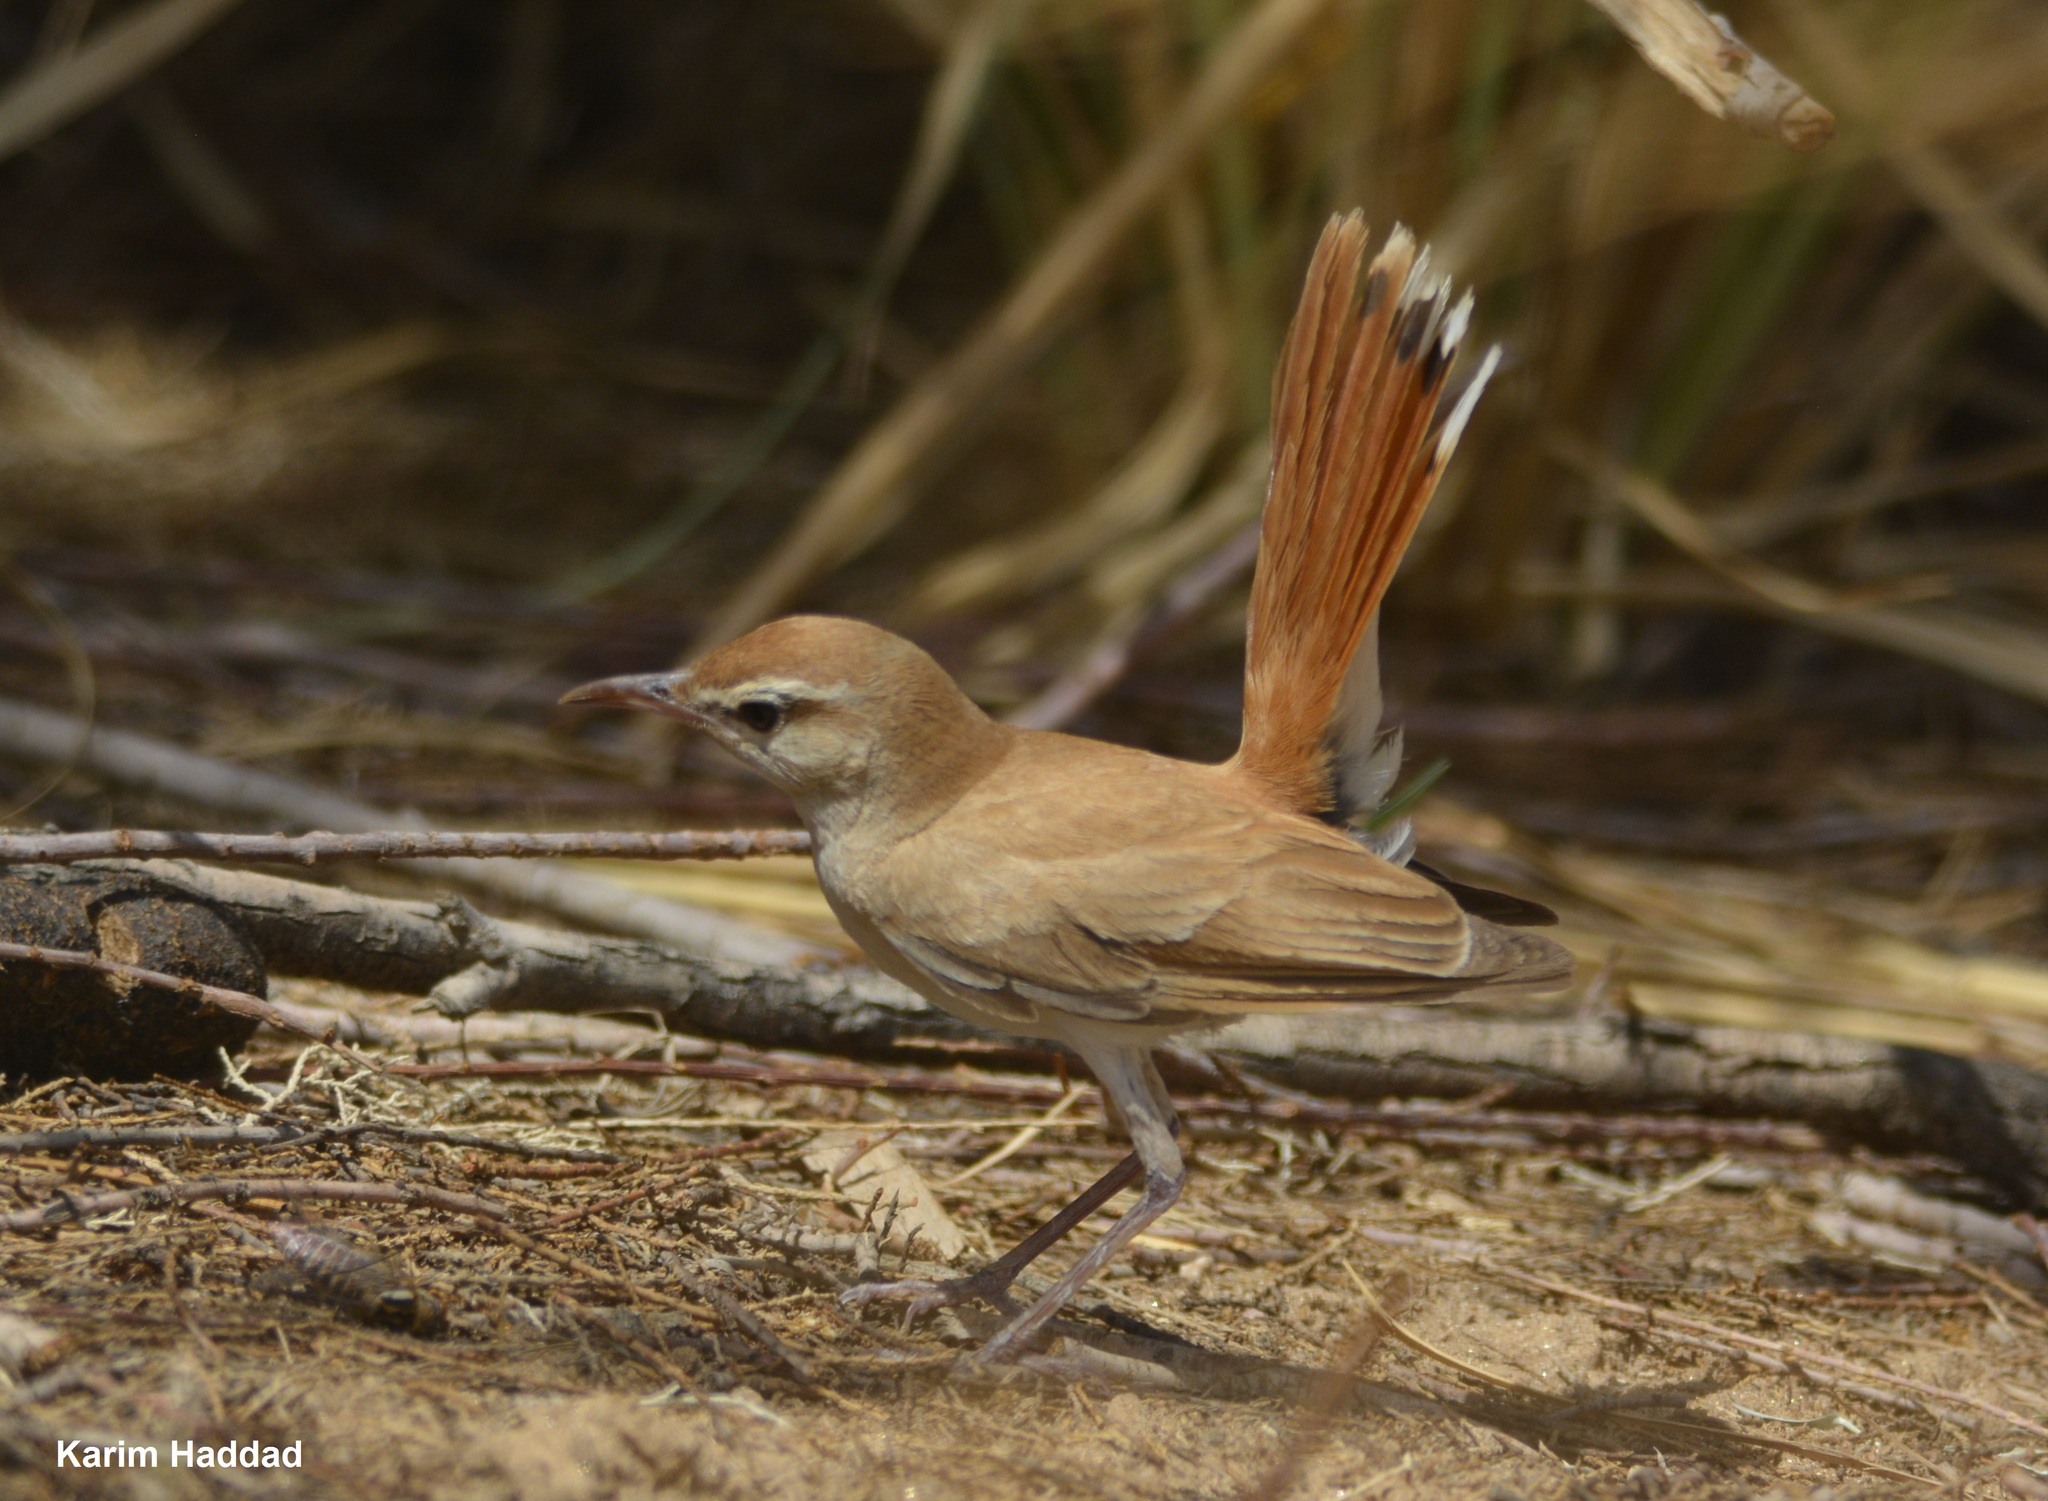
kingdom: Animalia
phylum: Chordata
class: Aves
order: Passeriformes
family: Muscicapidae
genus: Erythropygia
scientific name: Erythropygia galactotes
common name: Rufous-tailed scrub robin
